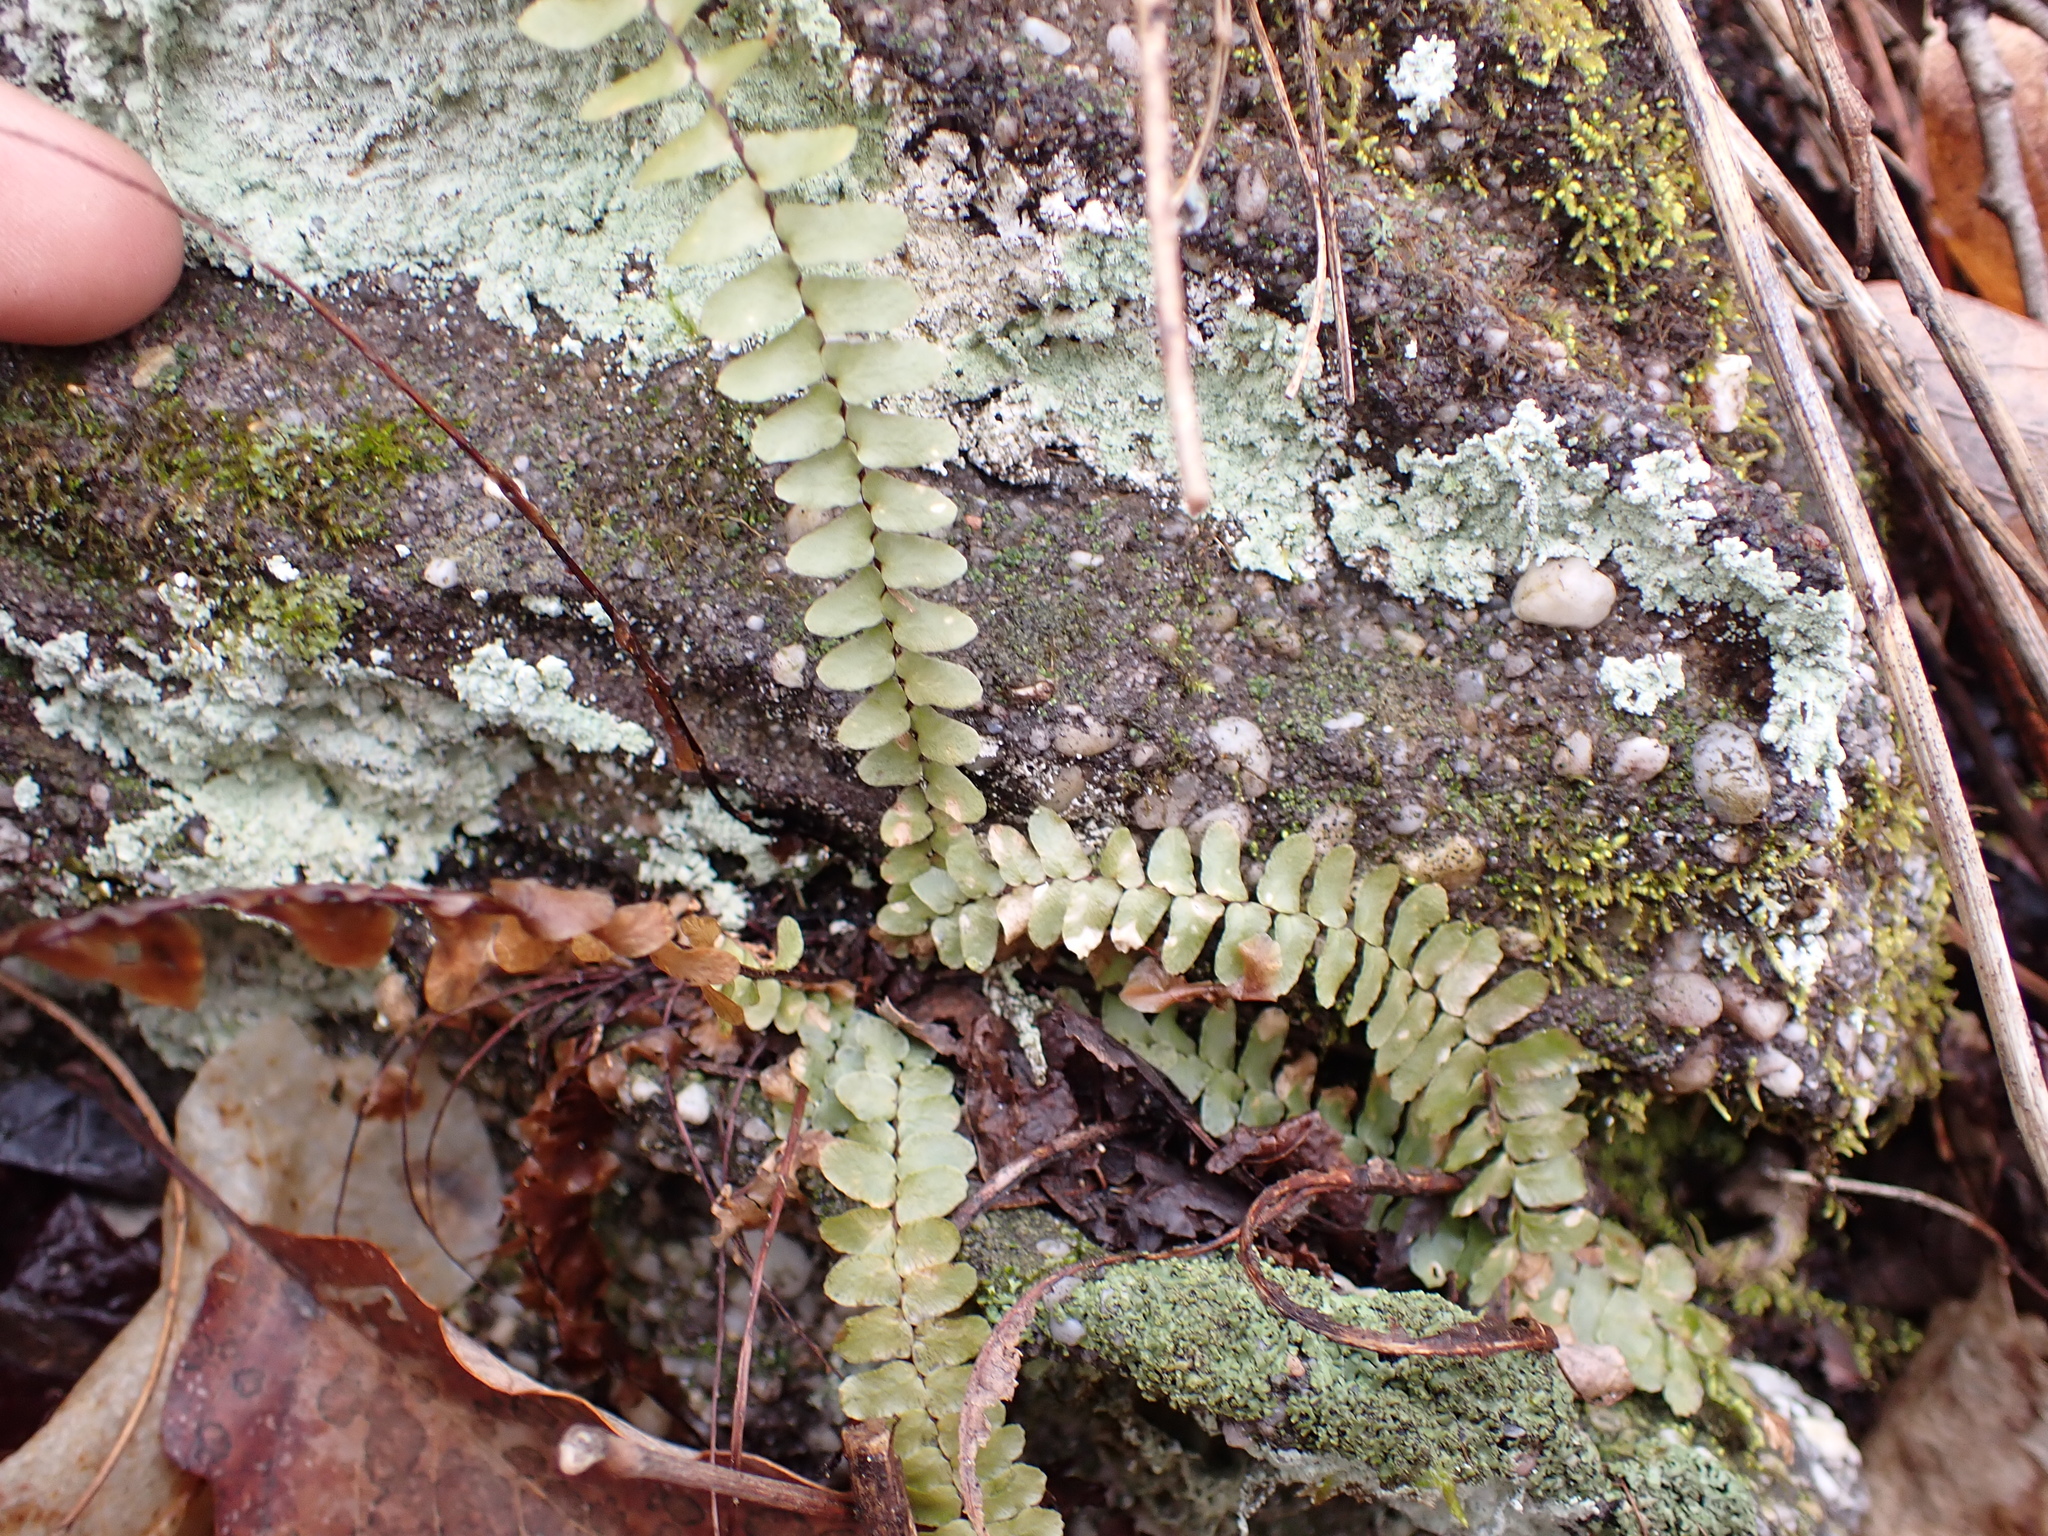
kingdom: Plantae
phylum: Tracheophyta
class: Polypodiopsida
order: Polypodiales
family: Aspleniaceae
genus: Asplenium
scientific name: Asplenium platyneuron
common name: Ebony spleenwort
